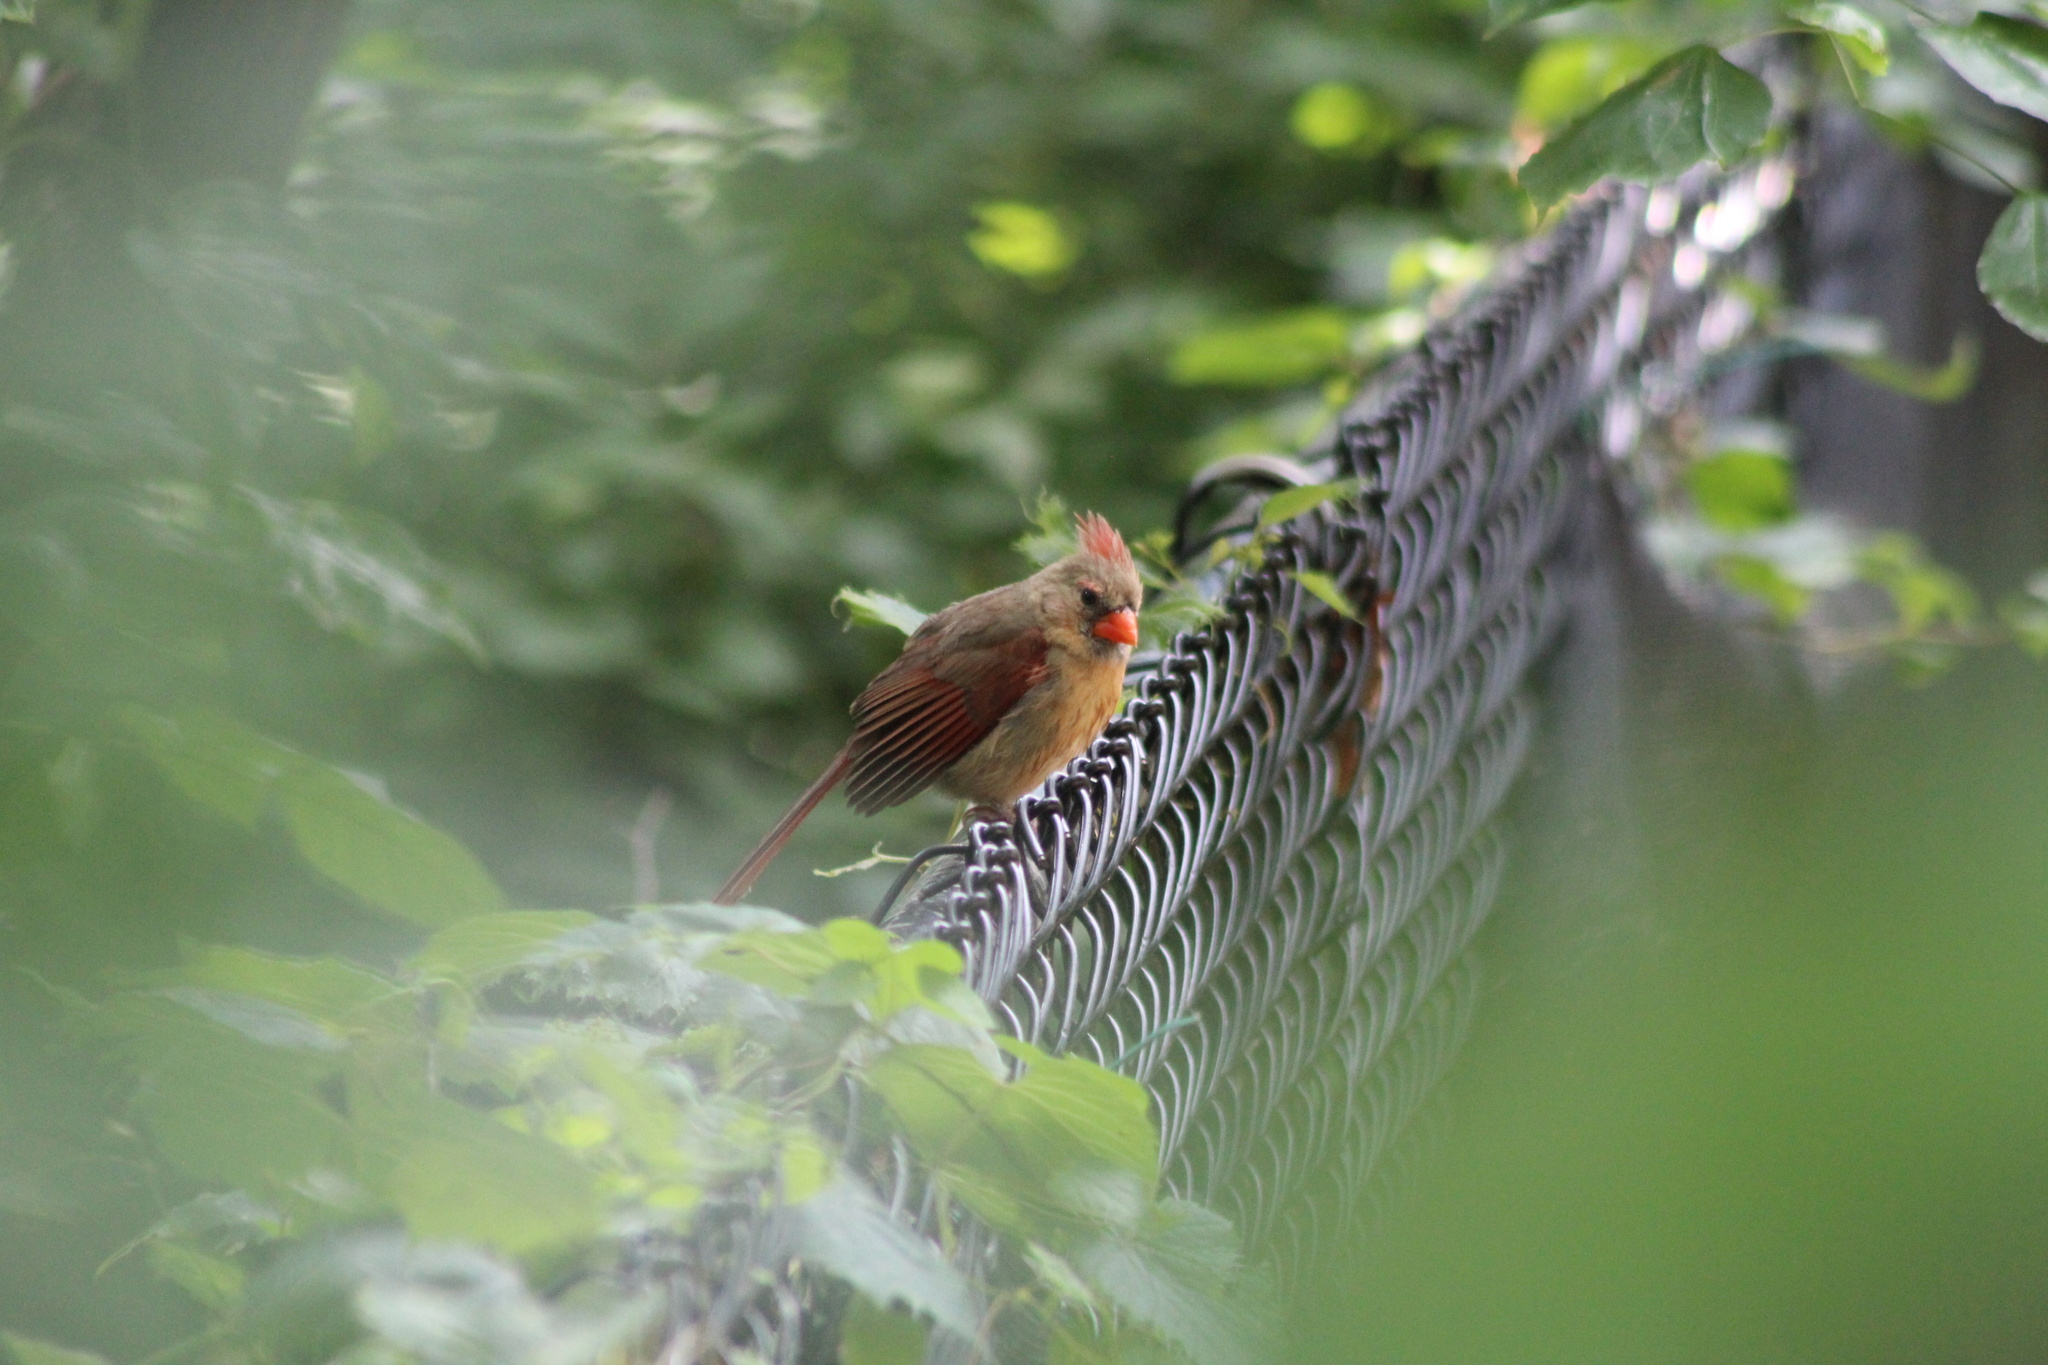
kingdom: Animalia
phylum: Chordata
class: Aves
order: Passeriformes
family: Cardinalidae
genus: Cardinalis
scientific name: Cardinalis cardinalis
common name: Northern cardinal
